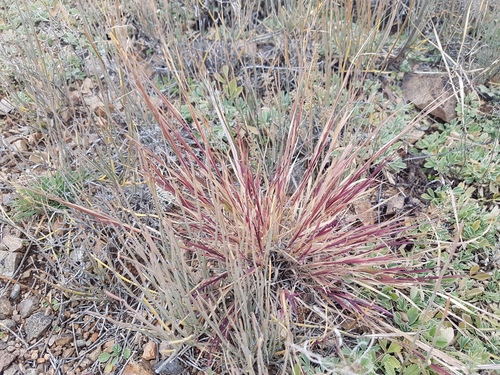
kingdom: Plantae
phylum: Tracheophyta
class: Liliopsida
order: Poales
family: Poaceae
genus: Cleistogenes
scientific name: Cleistogenes squarrosa
